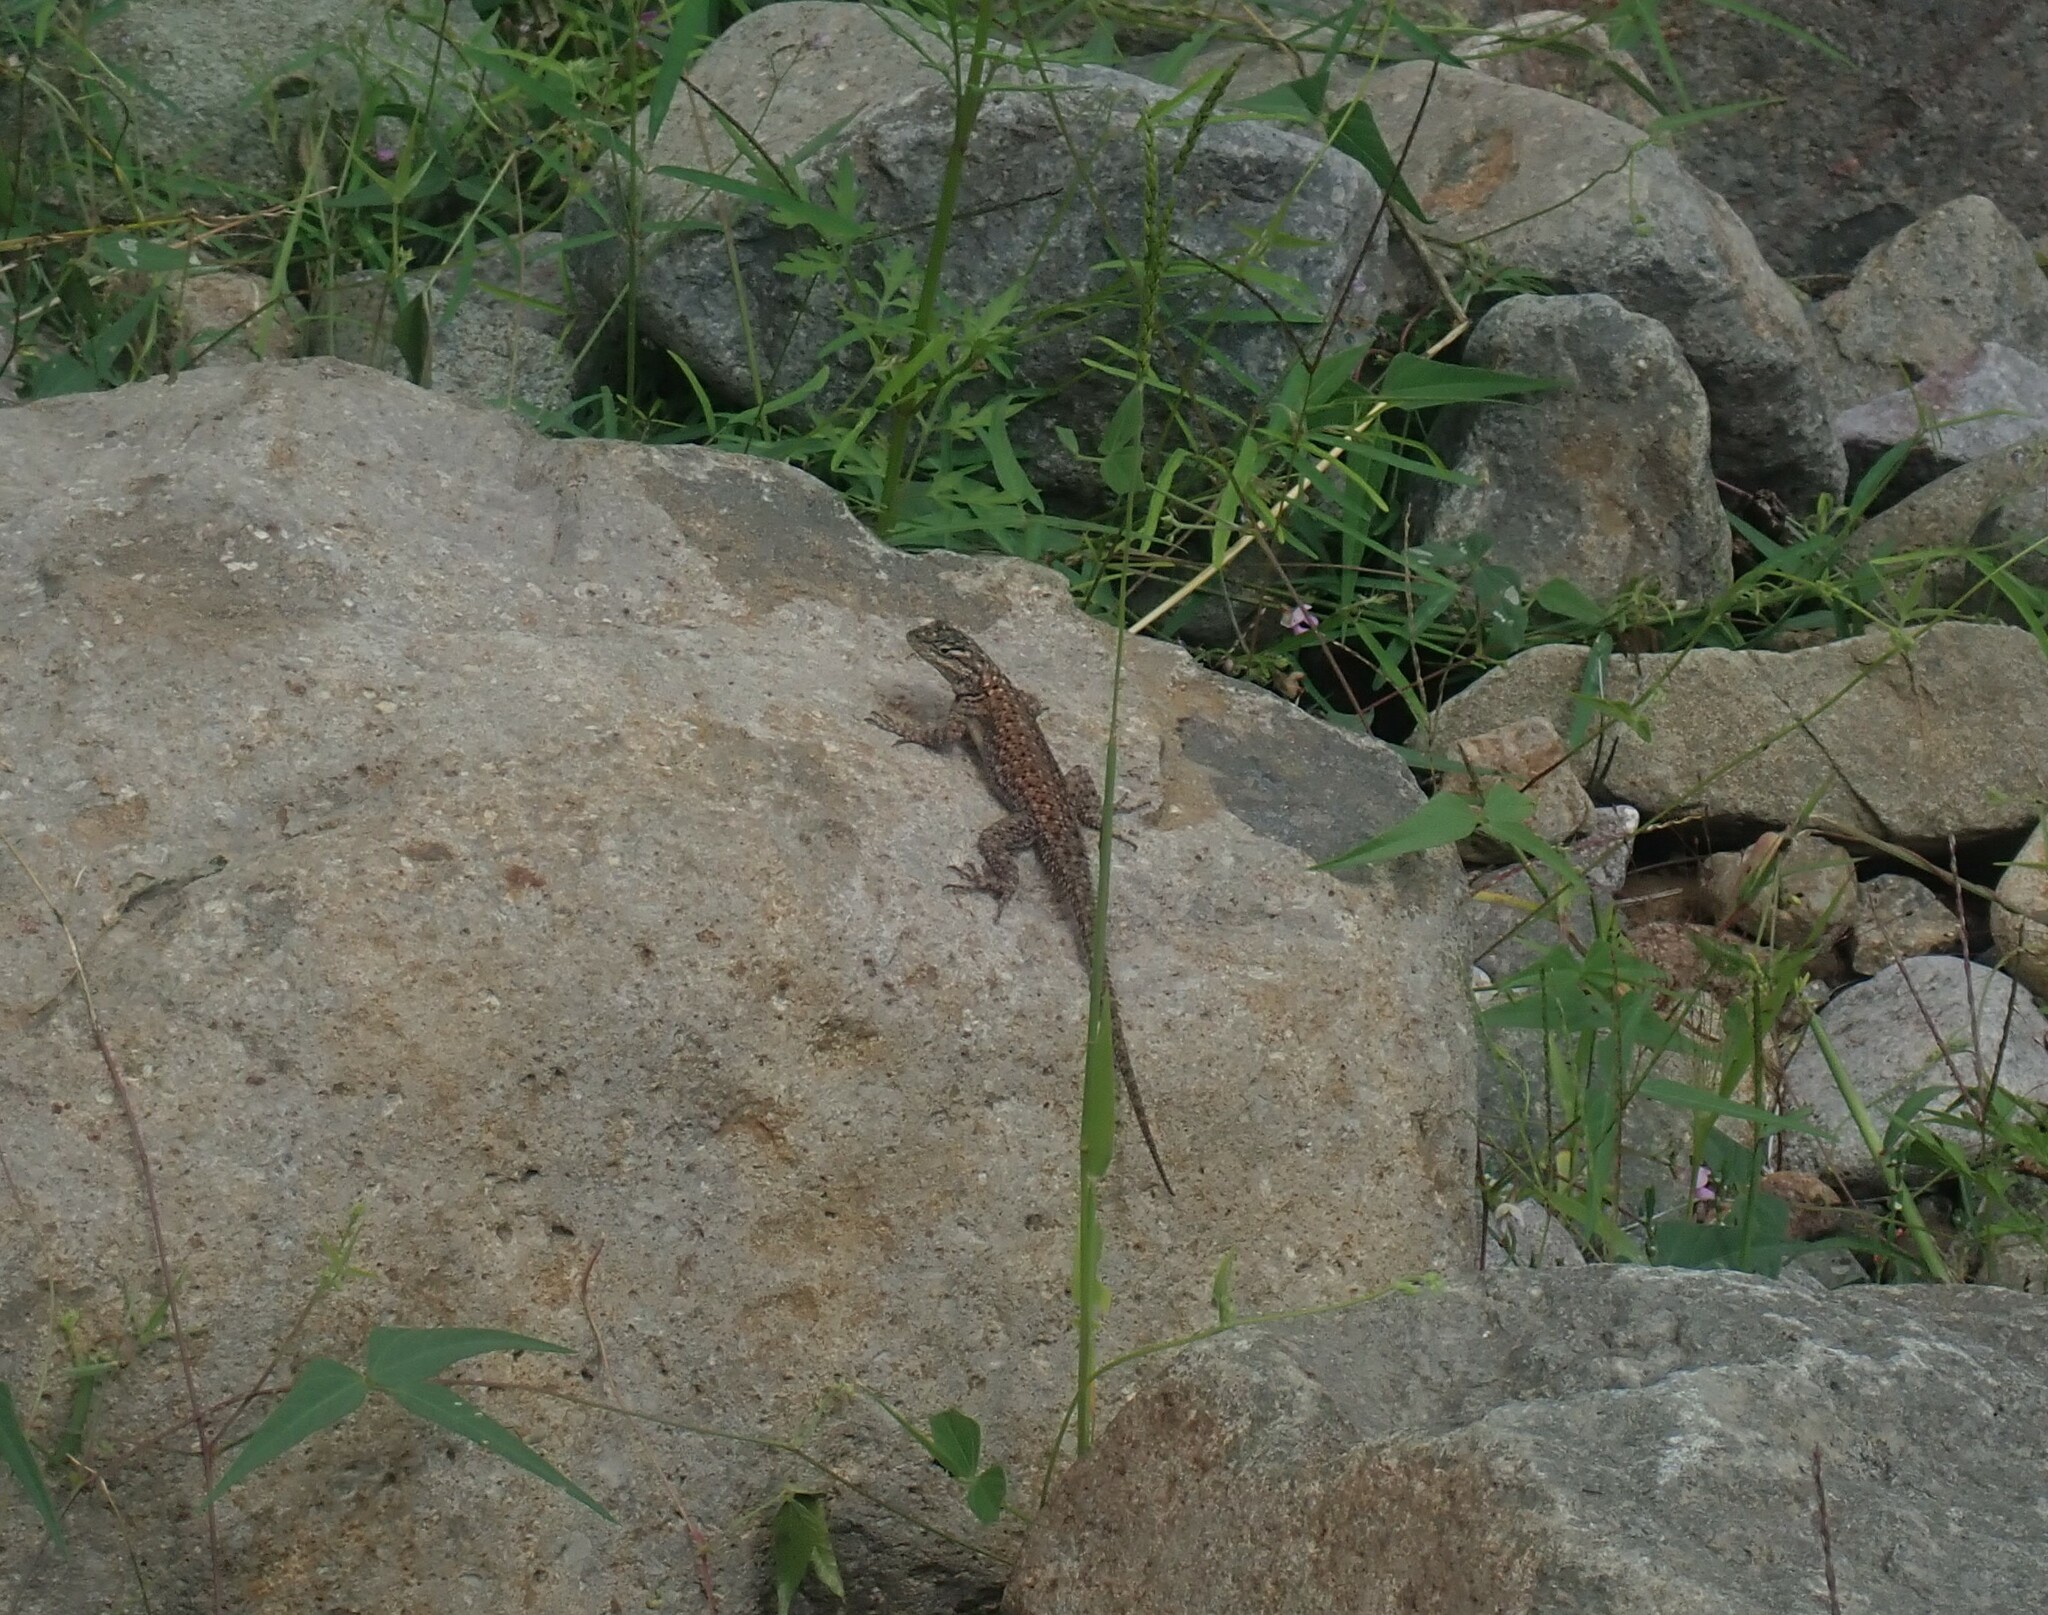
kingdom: Animalia
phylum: Chordata
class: Squamata
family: Phrynosomatidae
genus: Sceloporus
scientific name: Sceloporus jarrovii
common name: Yarrow's spiny lizard
